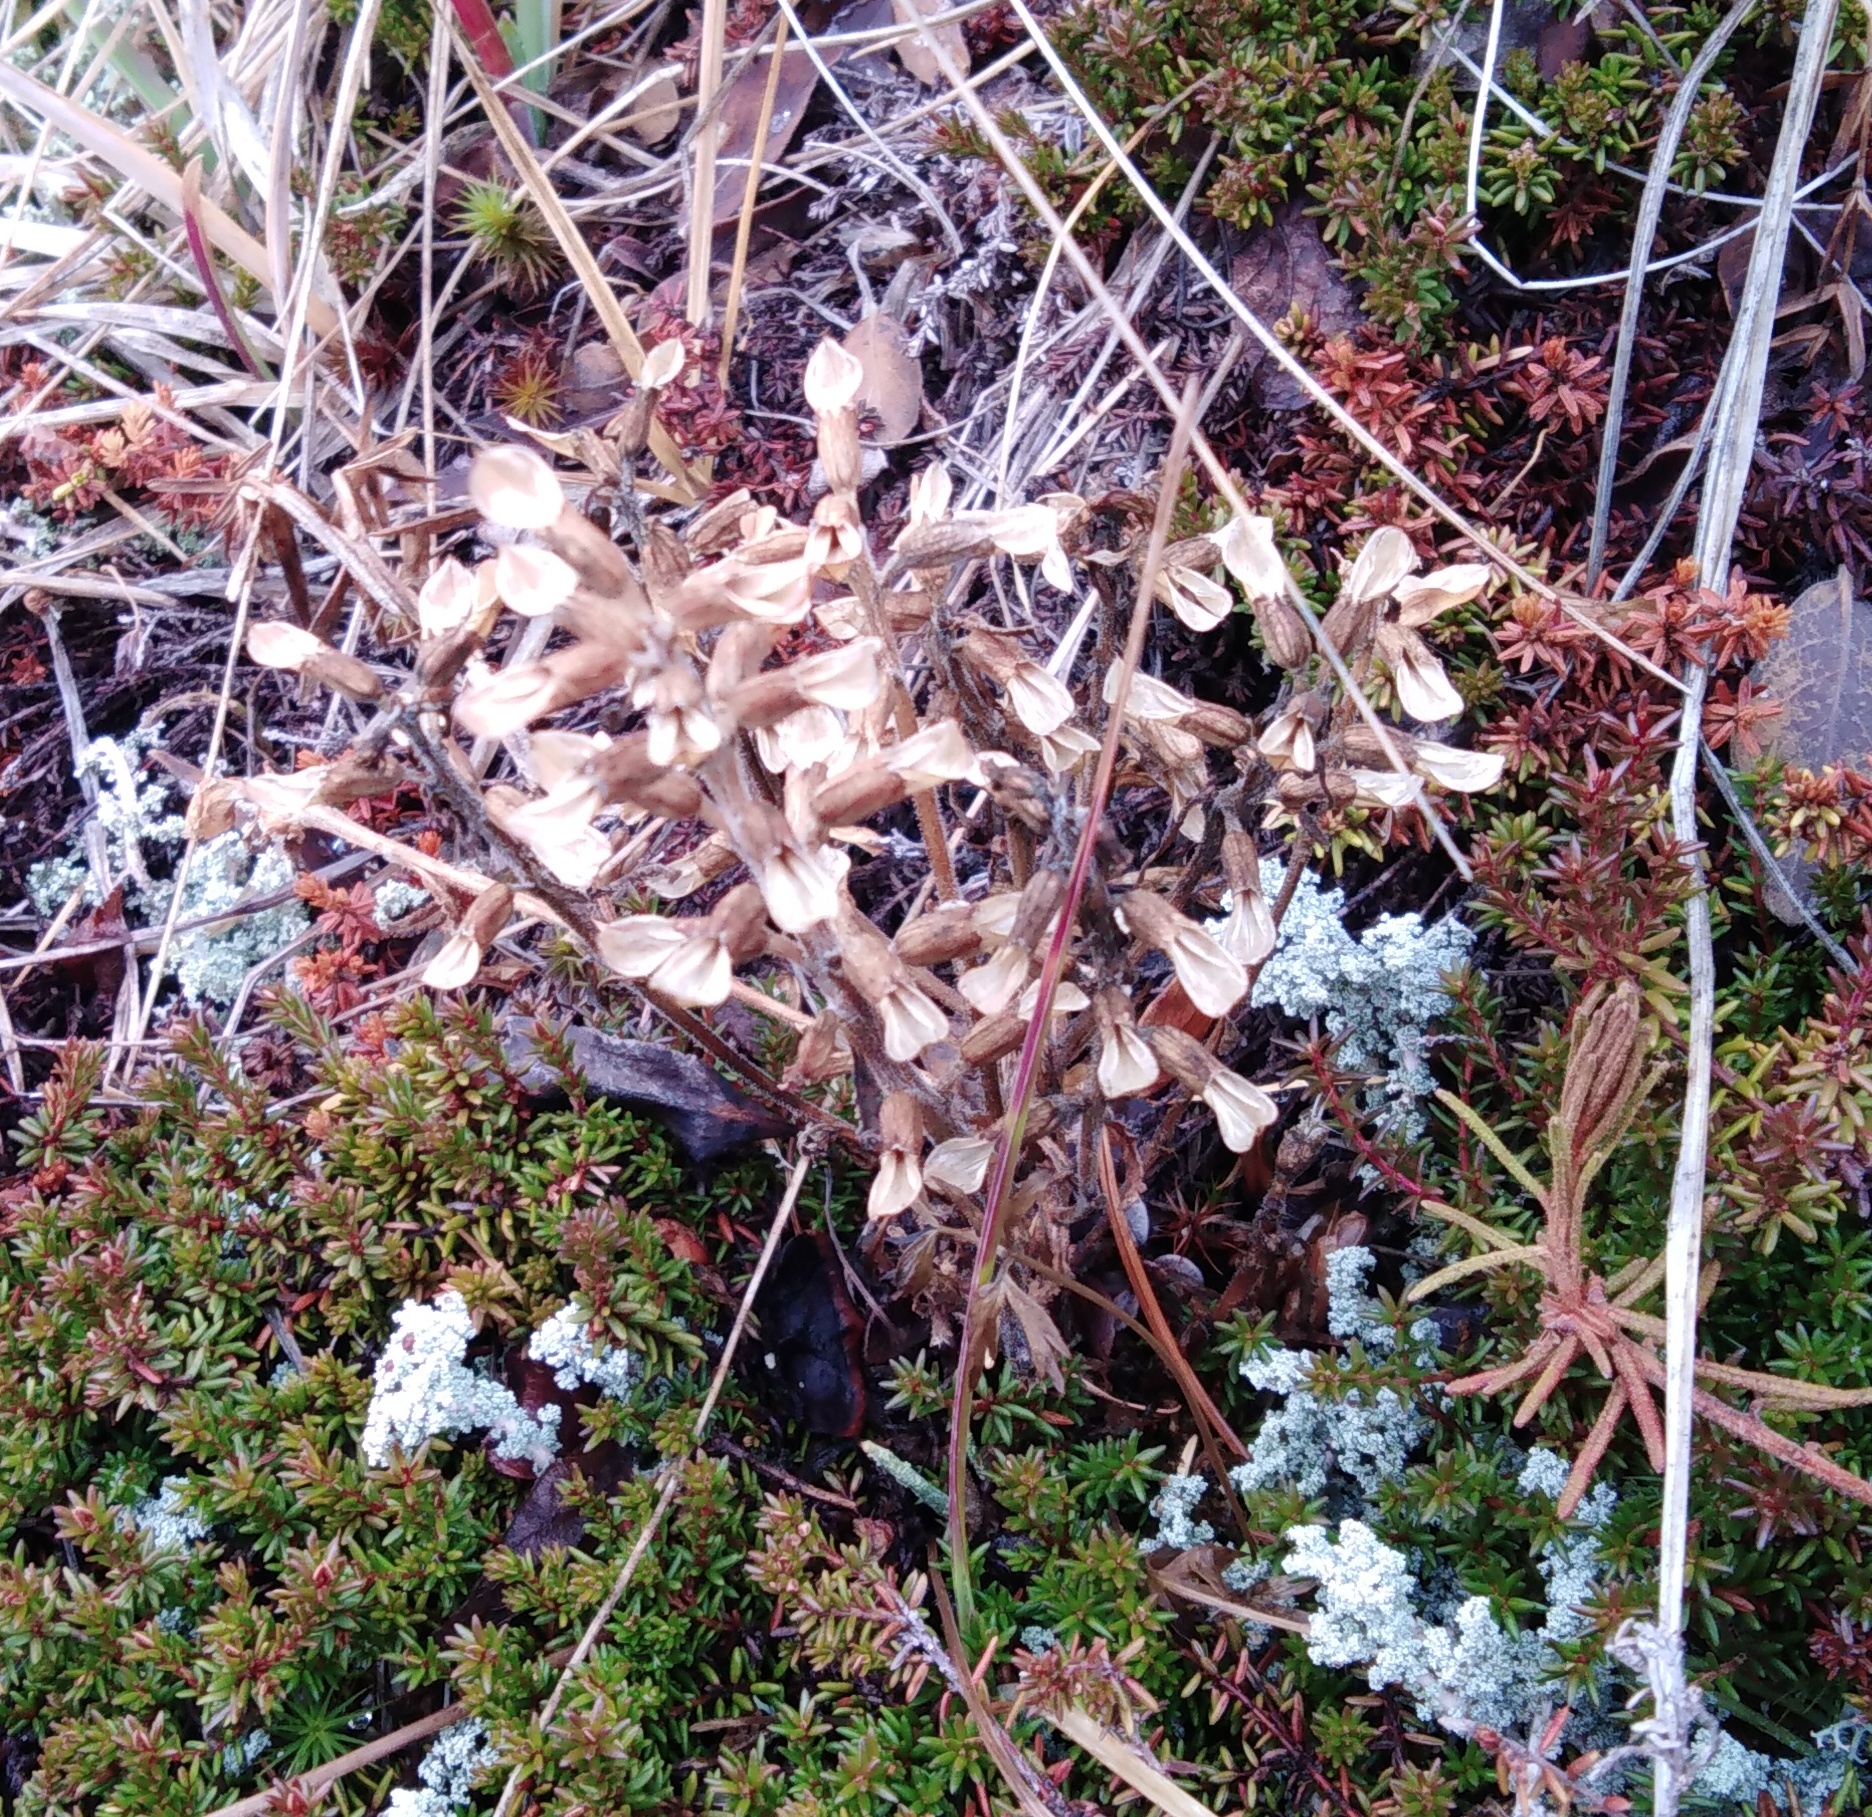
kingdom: Plantae
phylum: Tracheophyta
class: Magnoliopsida
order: Lamiales
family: Orobanchaceae
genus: Pedicularis
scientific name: Pedicularis labradorica
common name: Labrador lousewort
